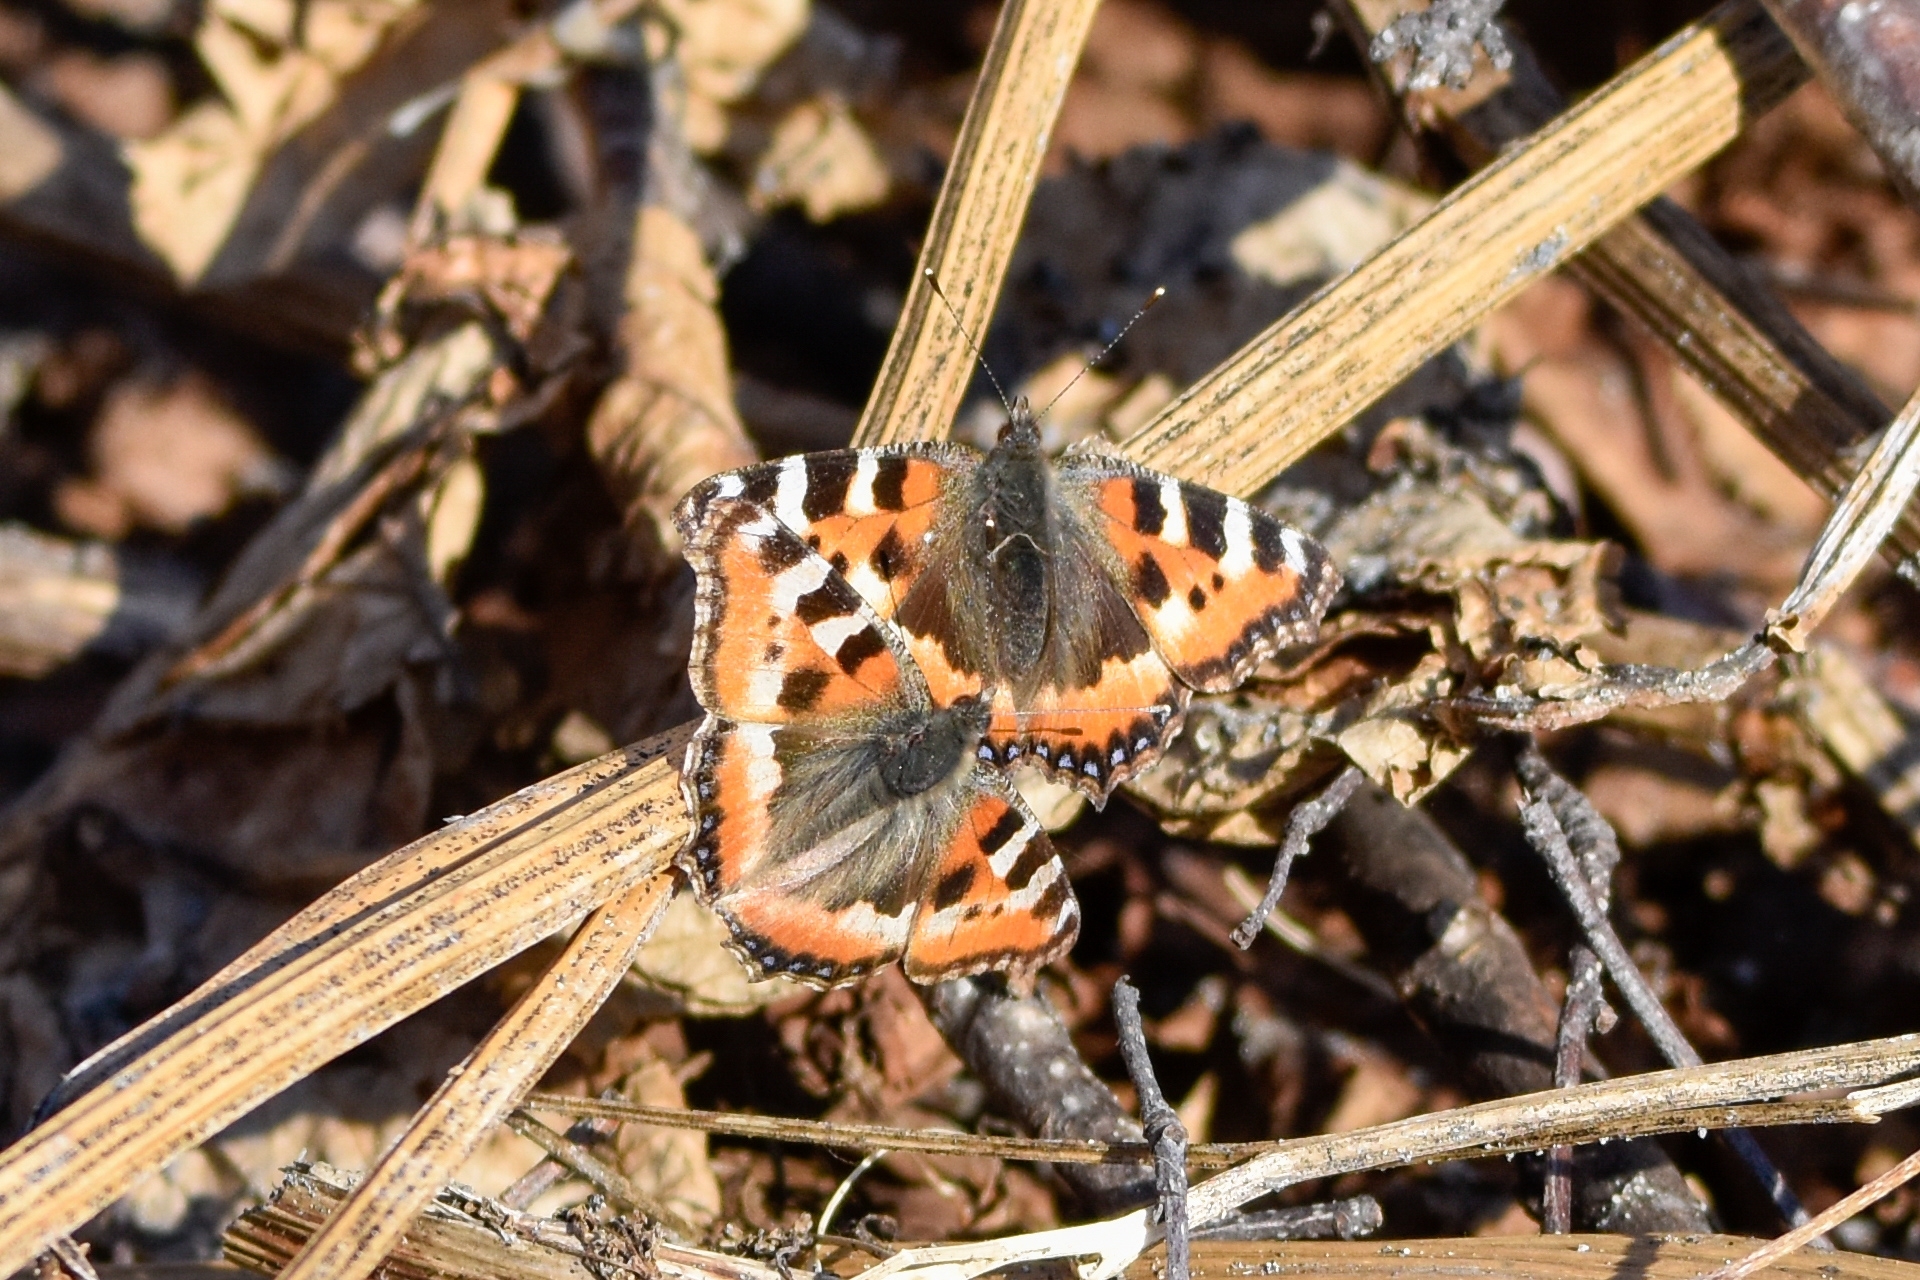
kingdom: Animalia
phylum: Arthropoda
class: Insecta
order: Lepidoptera
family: Nymphalidae
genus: Aglais
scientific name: Aglais urticae
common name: Small tortoiseshell
